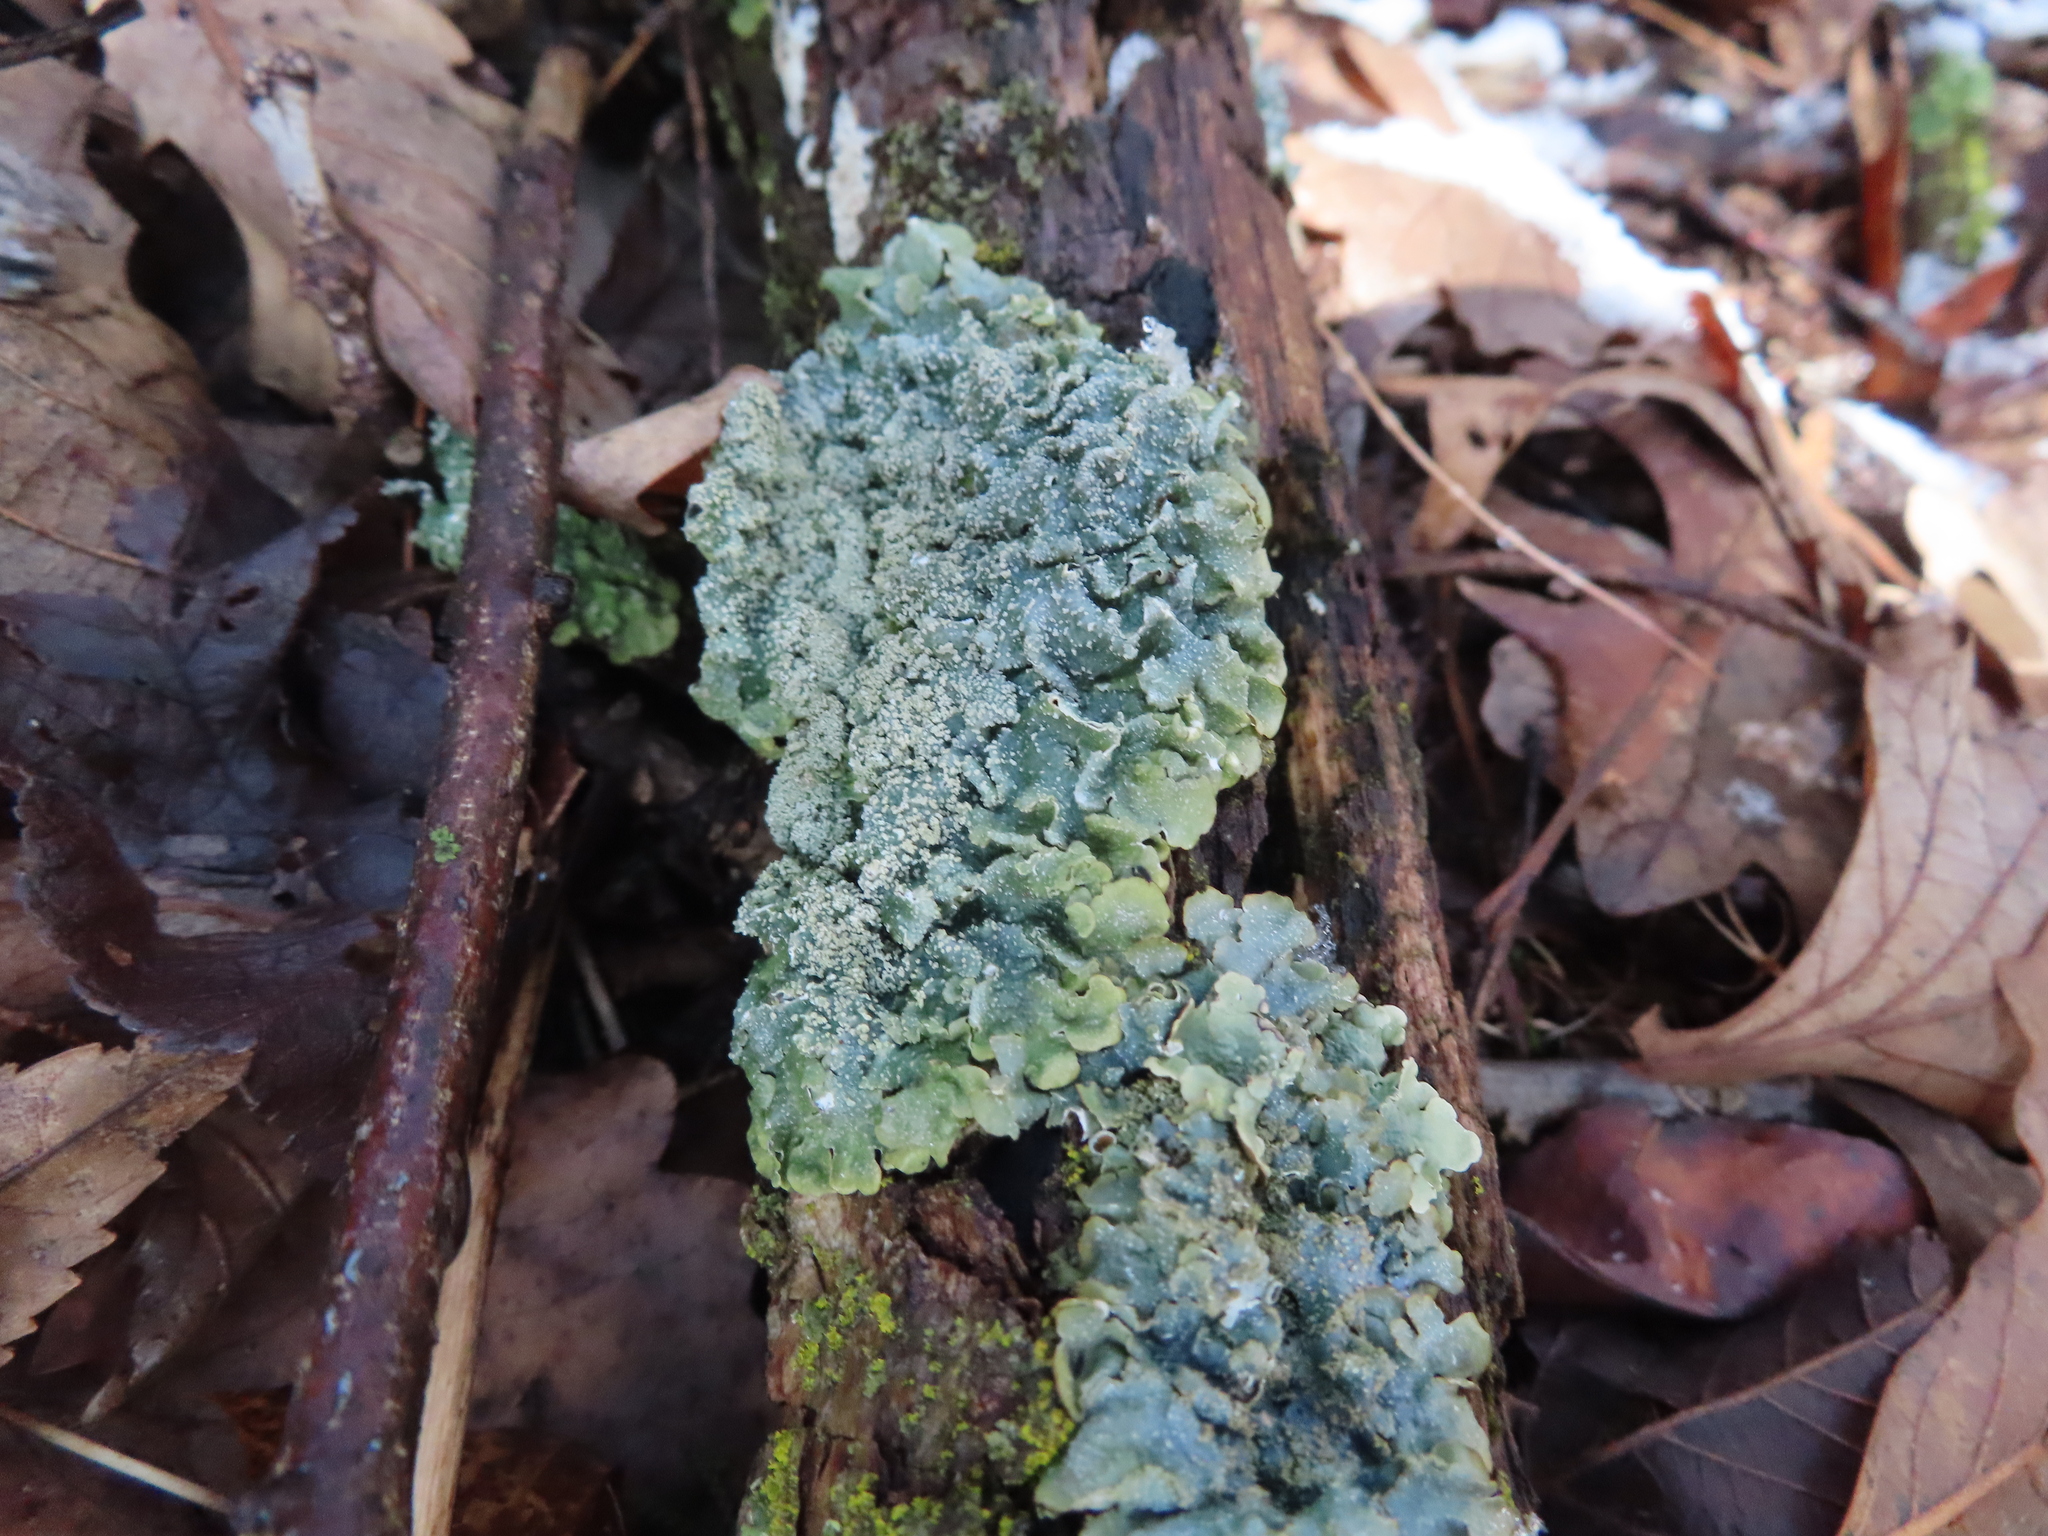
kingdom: Fungi
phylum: Ascomycota
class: Lecanoromycetes
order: Lecanorales
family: Parmeliaceae
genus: Punctelia
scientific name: Punctelia missouriensis
